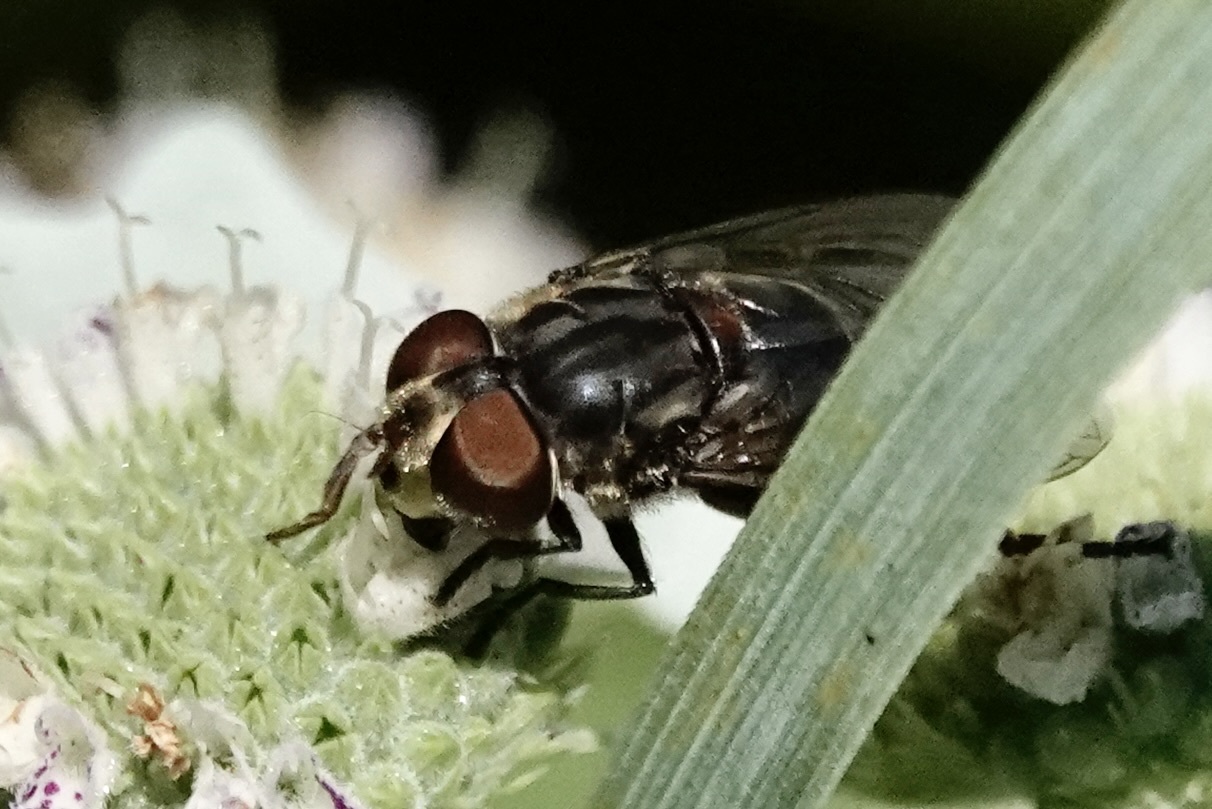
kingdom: Animalia
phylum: Arthropoda
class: Insecta
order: Diptera
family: Syrphidae
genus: Palpada
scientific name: Palpada furcata
